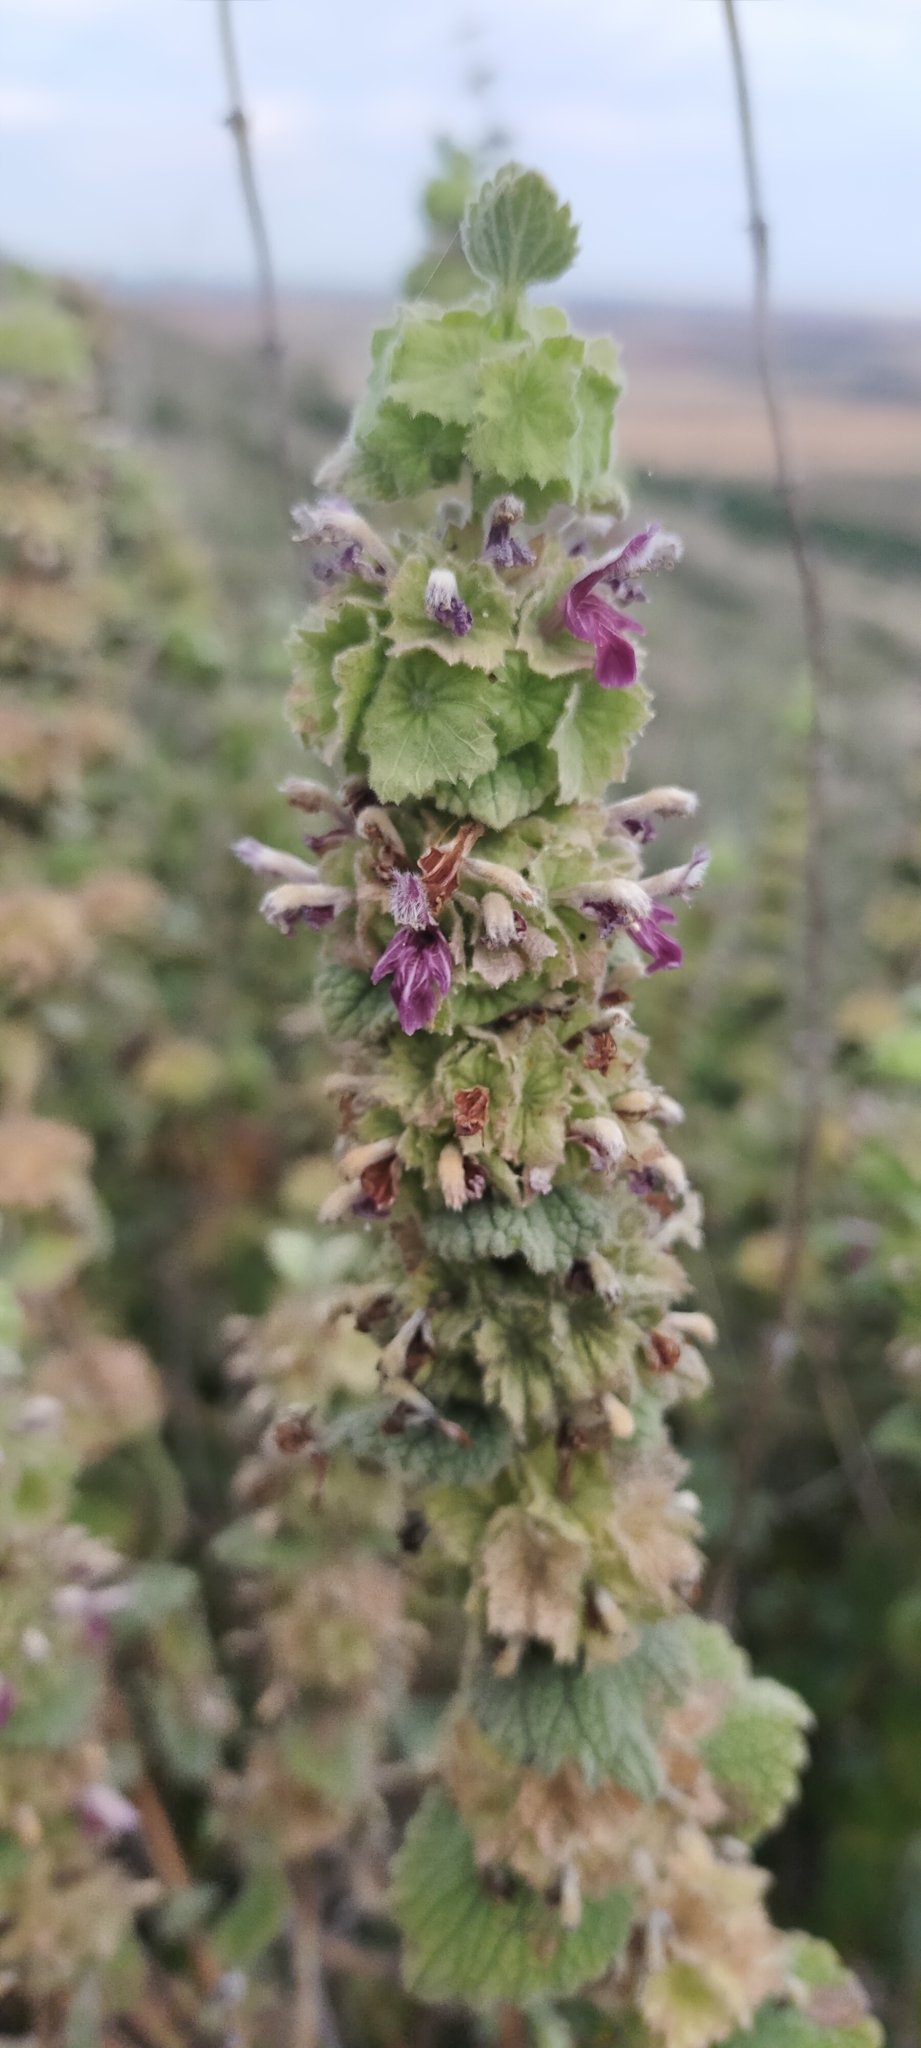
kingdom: Plantae
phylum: Tracheophyta
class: Magnoliopsida
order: Lamiales
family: Lamiaceae
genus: Pseudodictamnus
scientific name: Pseudodictamnus hirsutus
